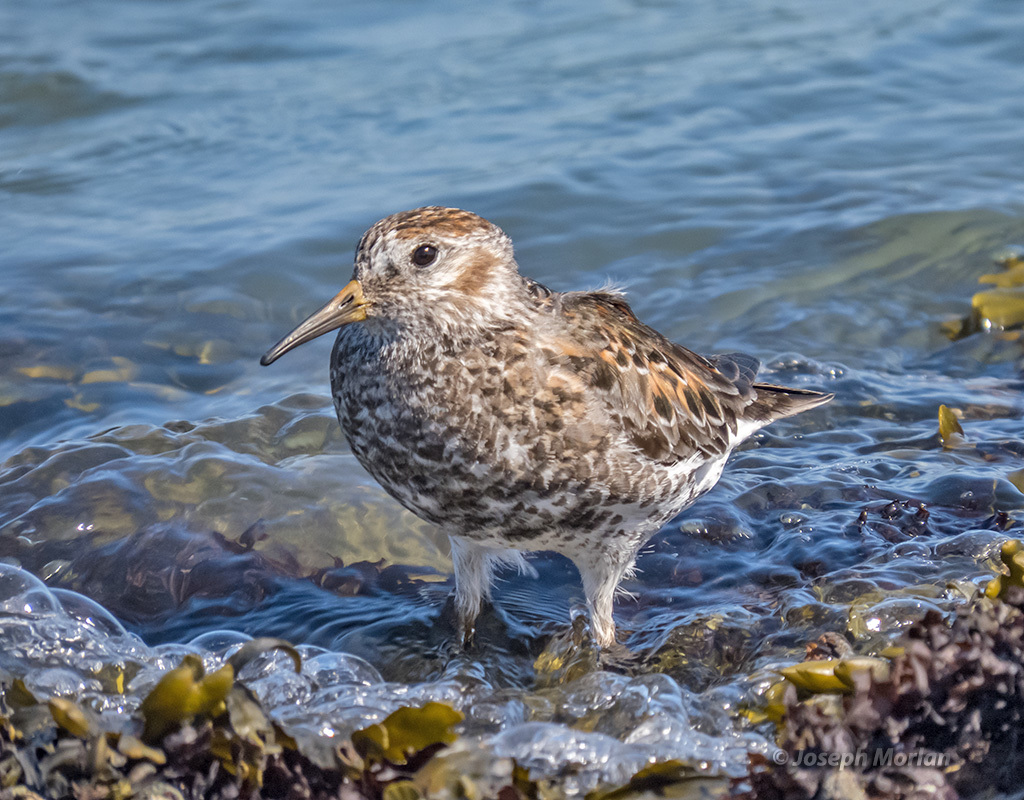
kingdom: Animalia
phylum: Chordata
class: Aves
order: Charadriiformes
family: Scolopacidae
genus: Calidris
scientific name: Calidris ptilocnemis
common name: Rock sandpiper
